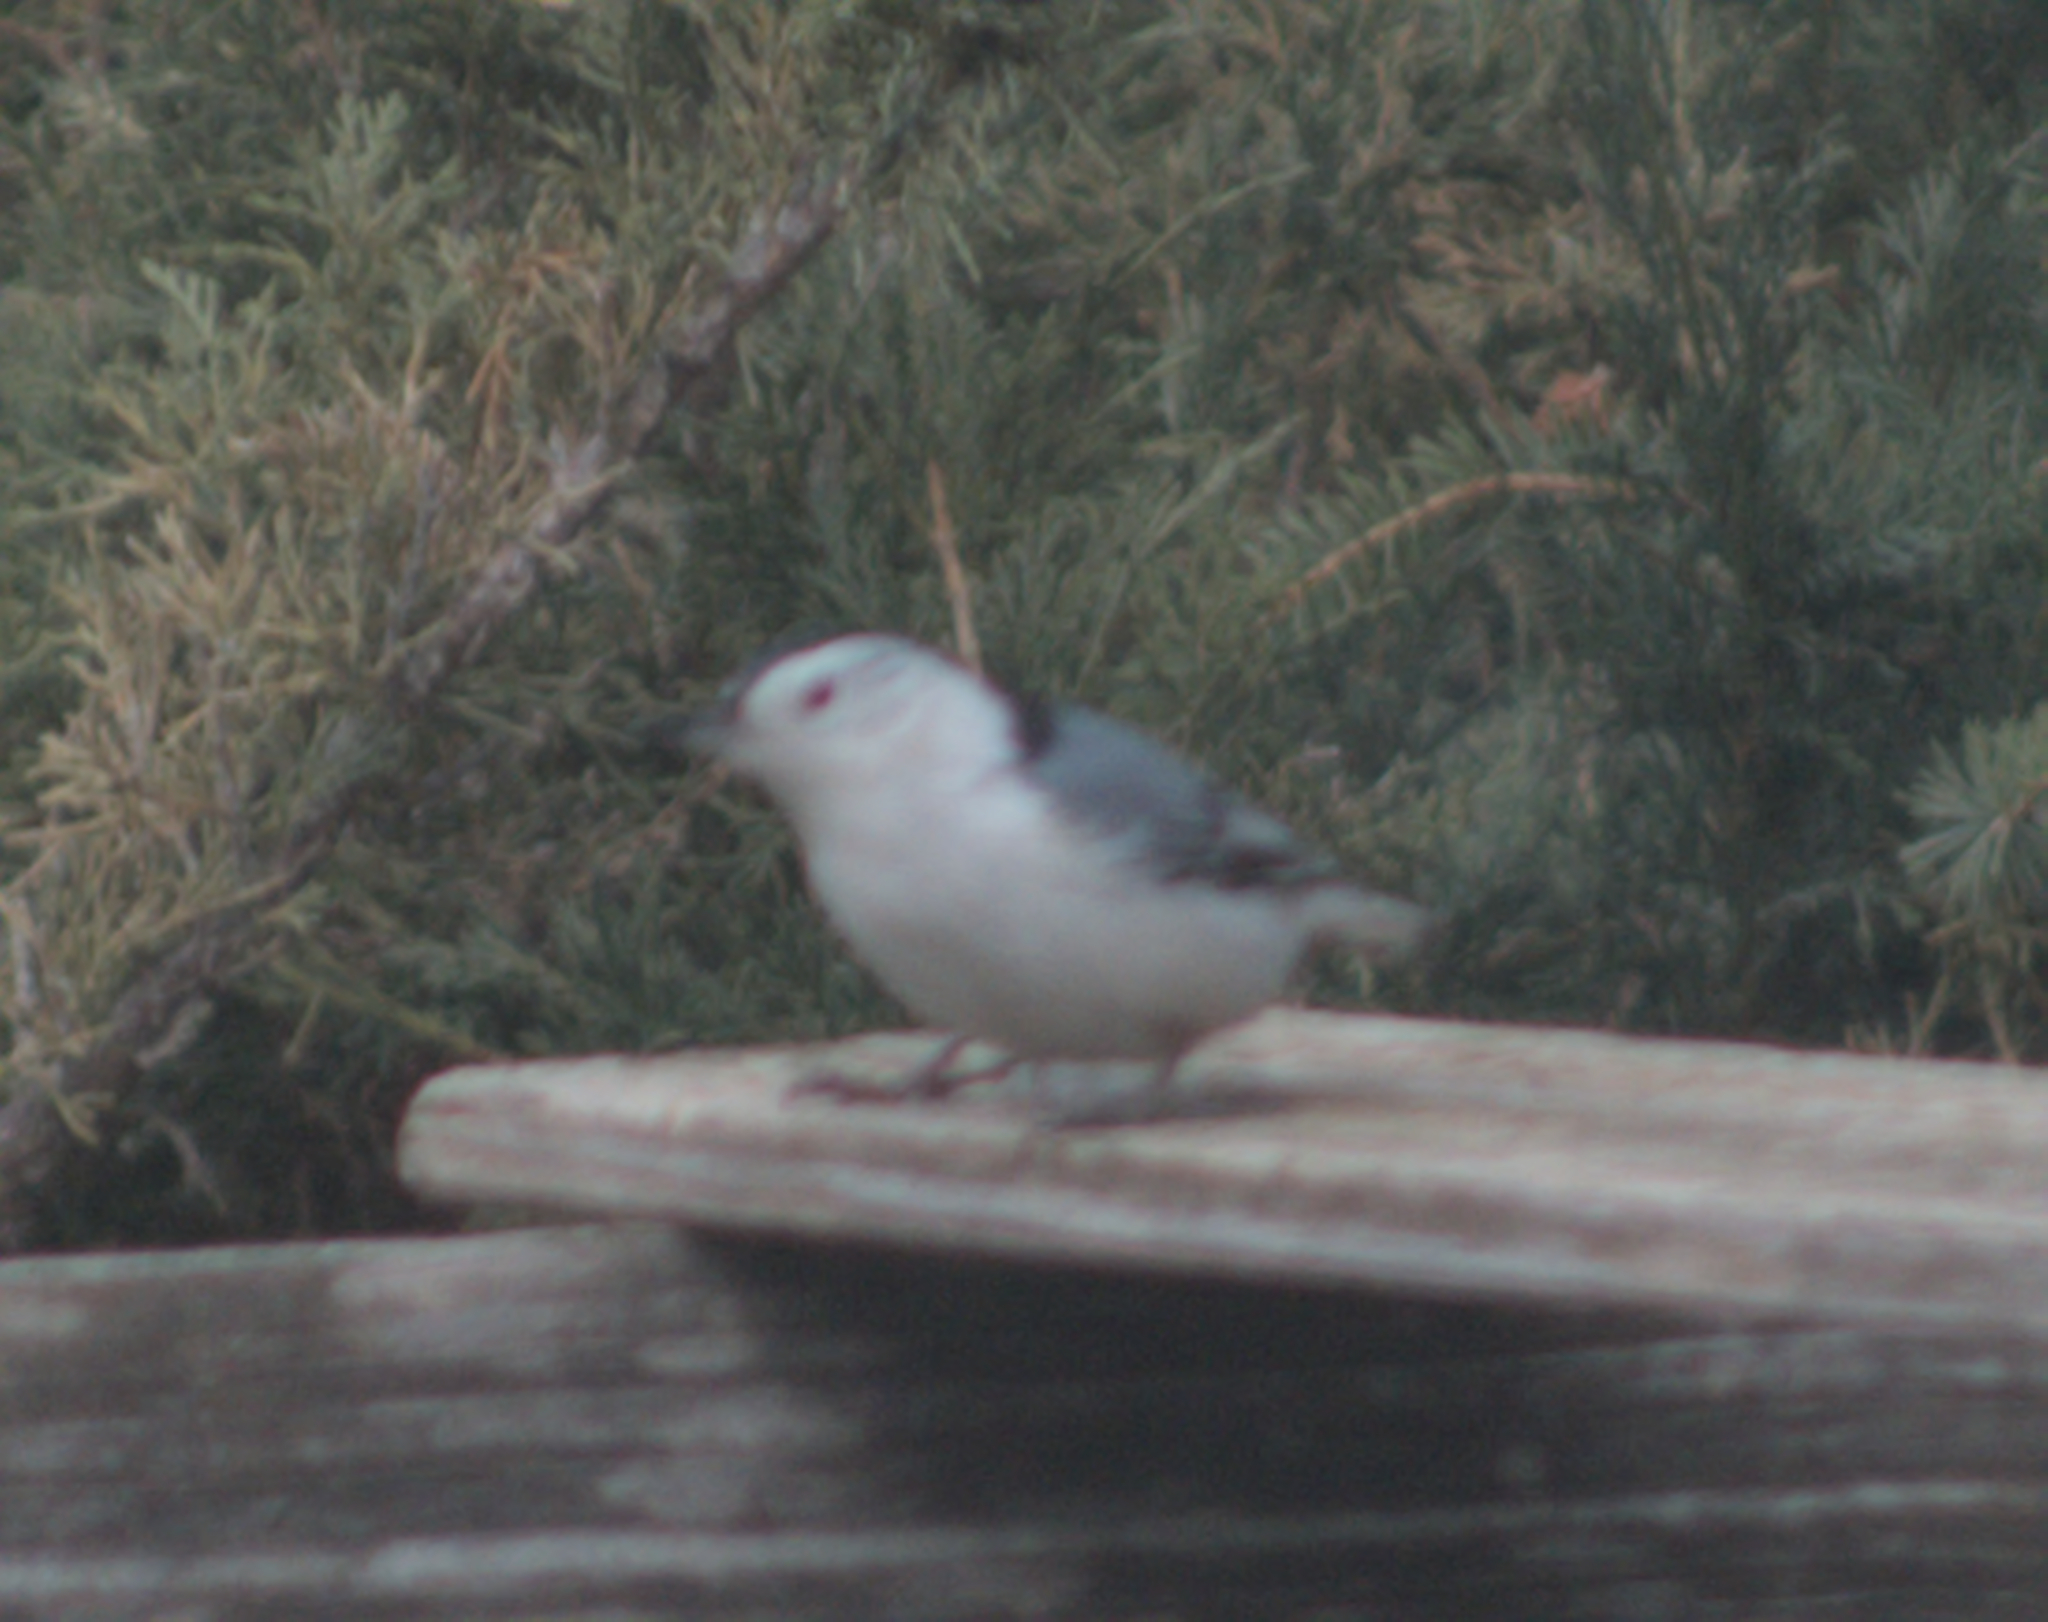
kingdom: Animalia
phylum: Chordata
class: Aves
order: Passeriformes
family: Sittidae
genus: Sitta
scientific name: Sitta carolinensis
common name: White-breasted nuthatch
